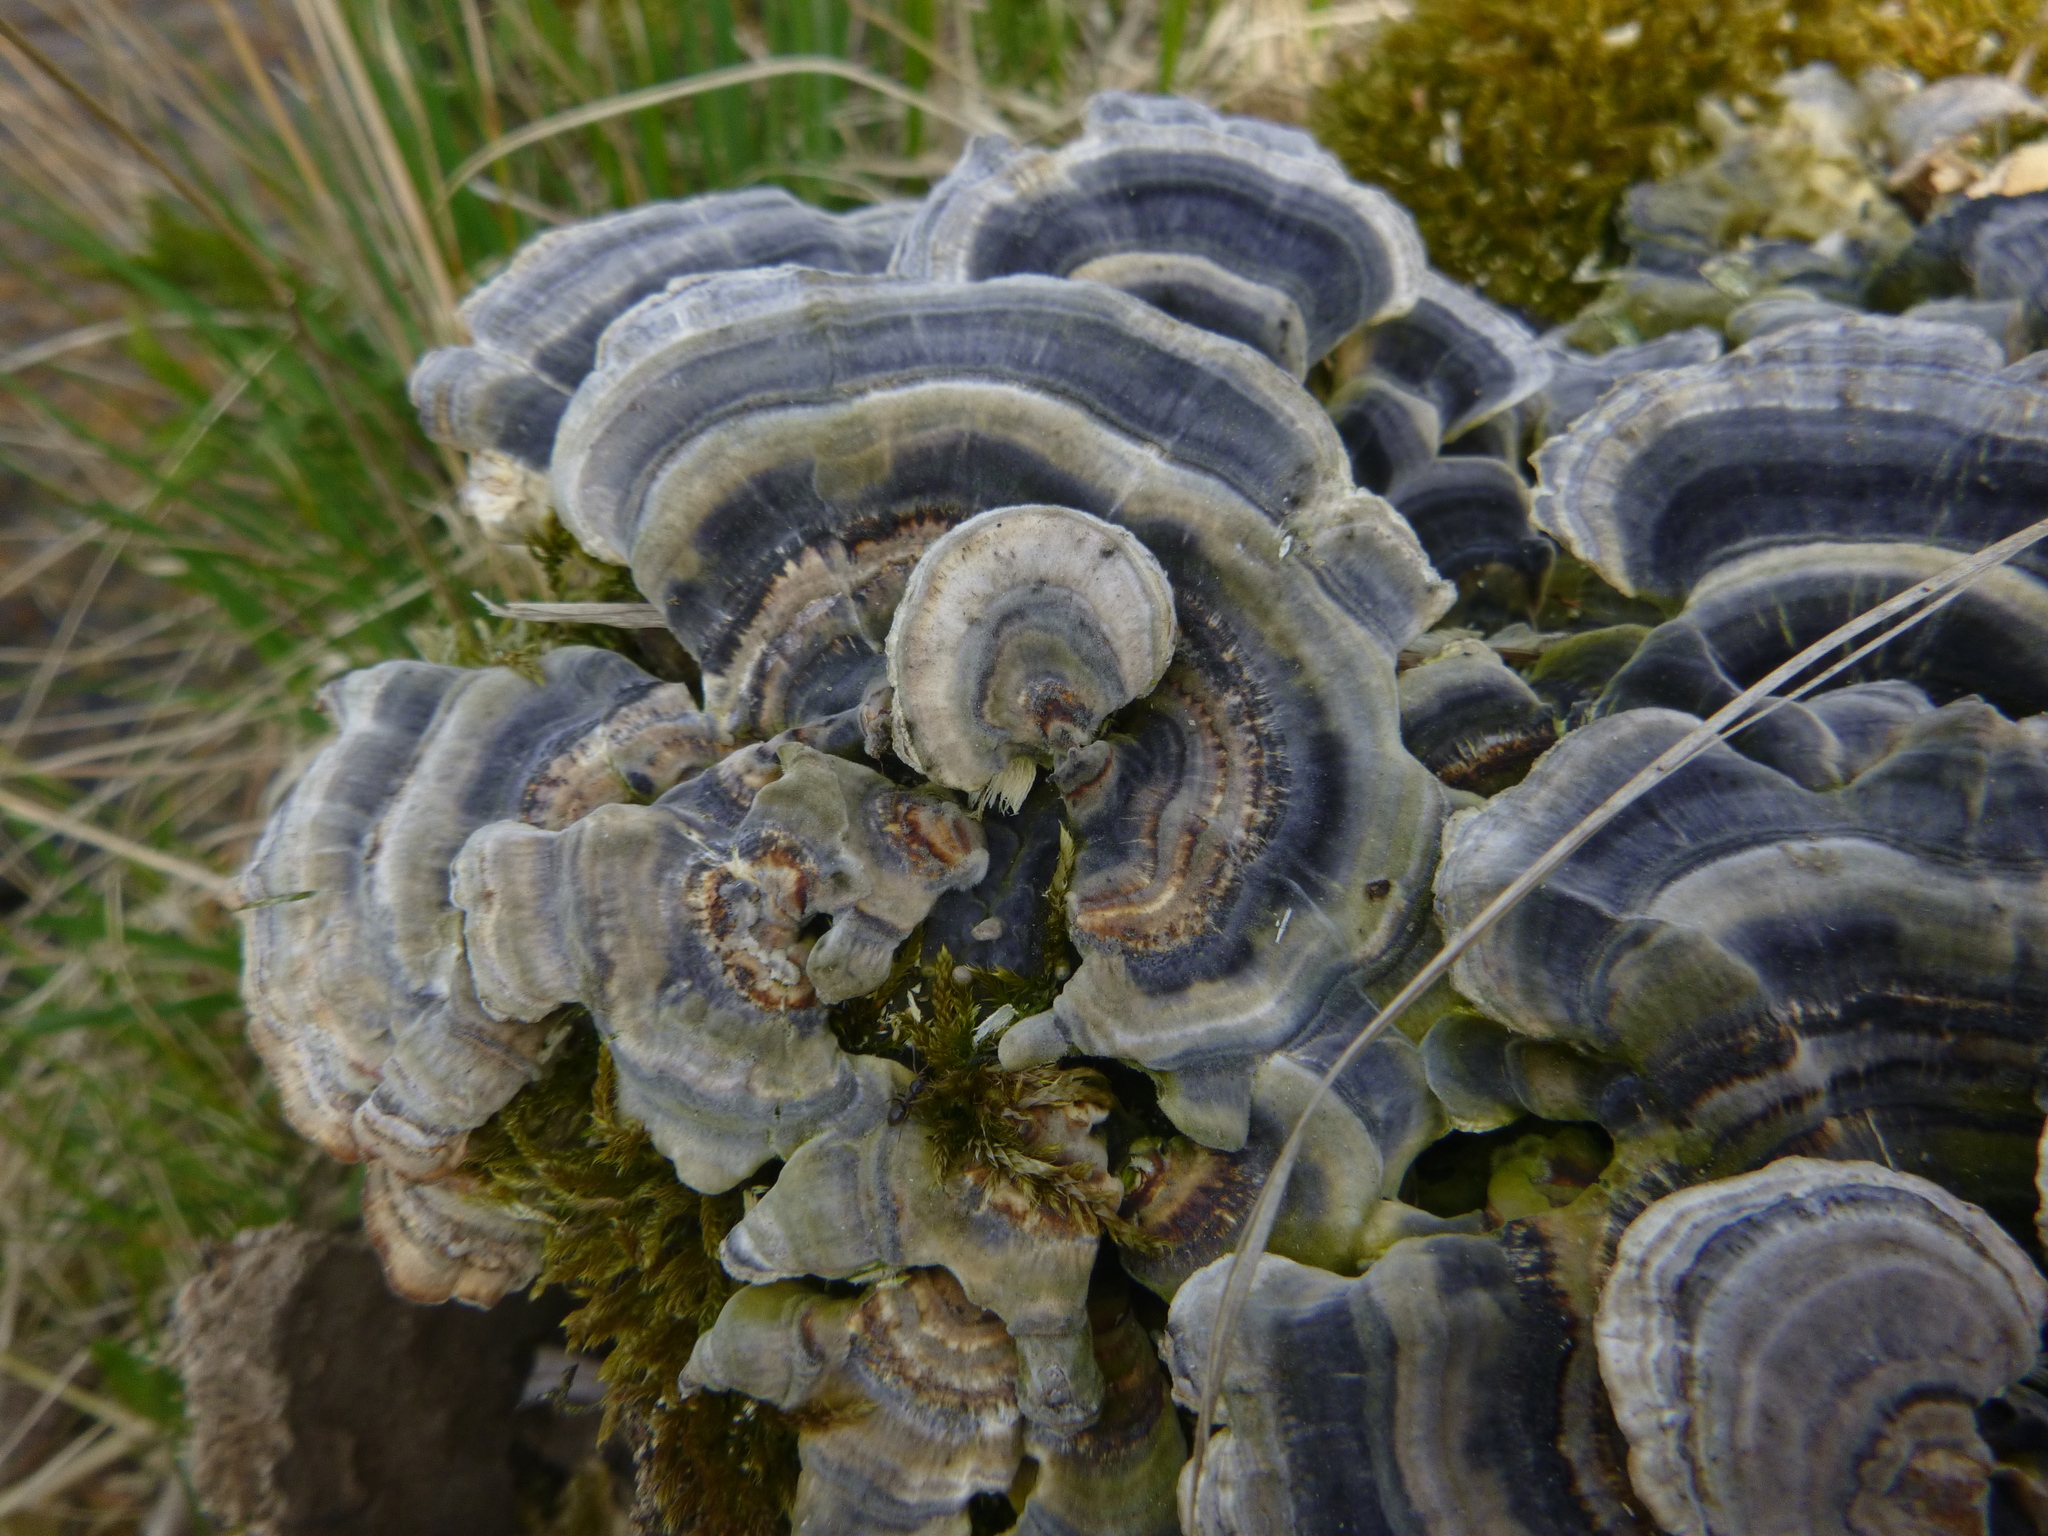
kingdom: Fungi
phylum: Basidiomycota
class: Agaricomycetes
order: Polyporales
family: Polyporaceae
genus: Trametes
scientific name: Trametes versicolor
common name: Turkeytail
